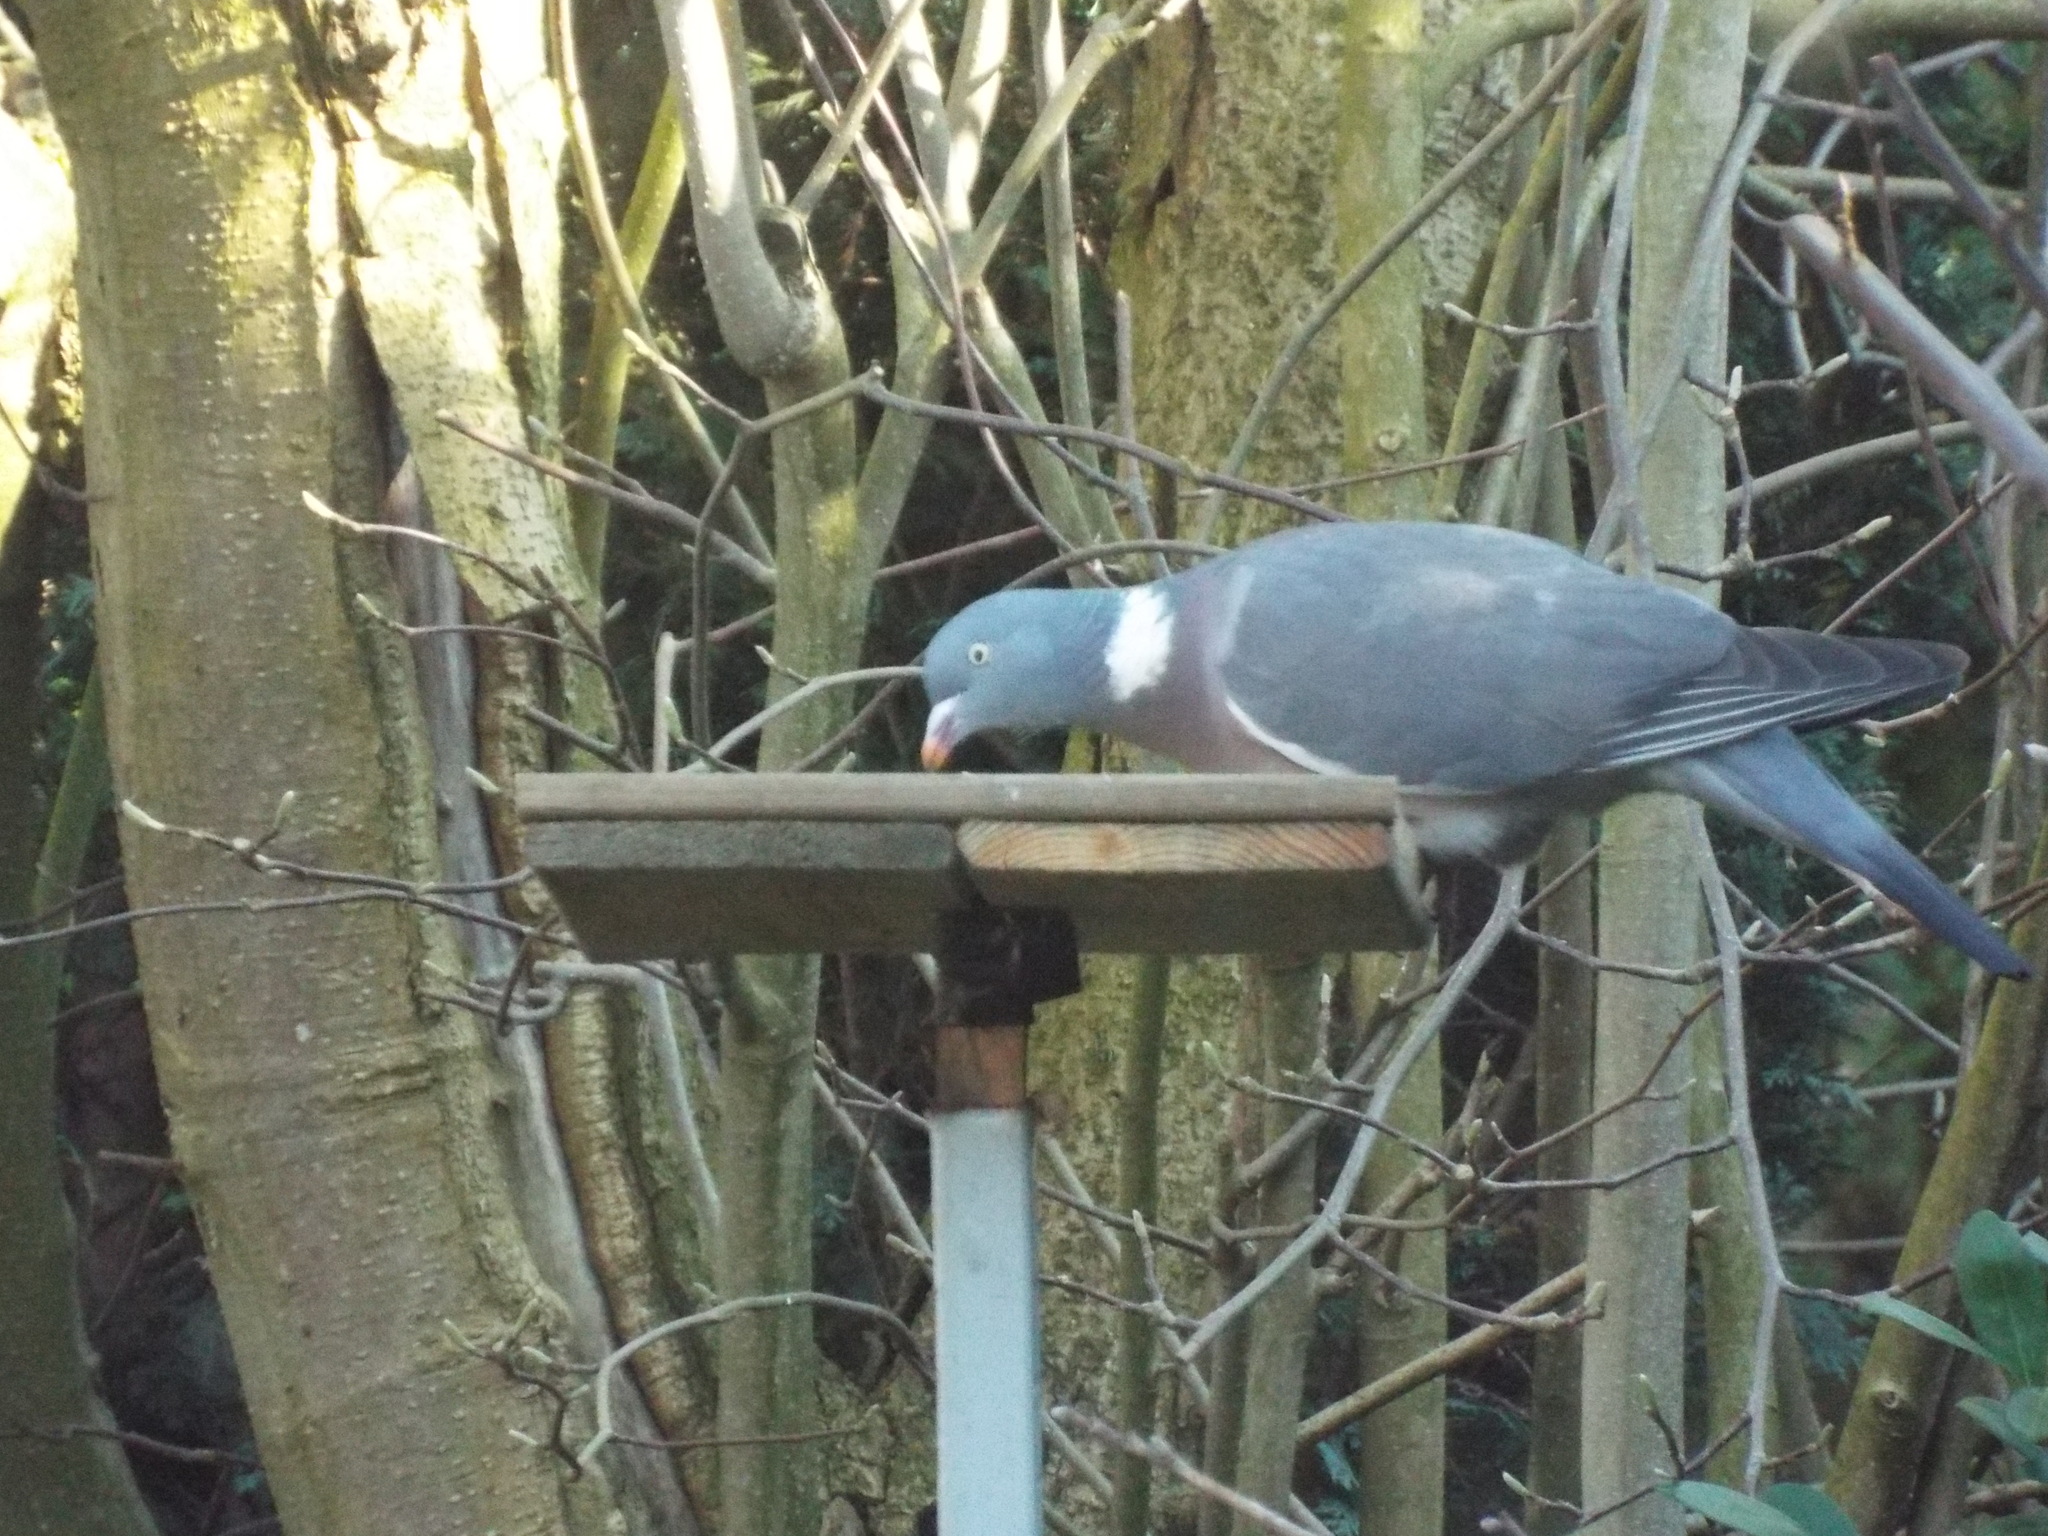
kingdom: Animalia
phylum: Chordata
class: Aves
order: Columbiformes
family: Columbidae
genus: Columba
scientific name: Columba palumbus
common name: Common wood pigeon
